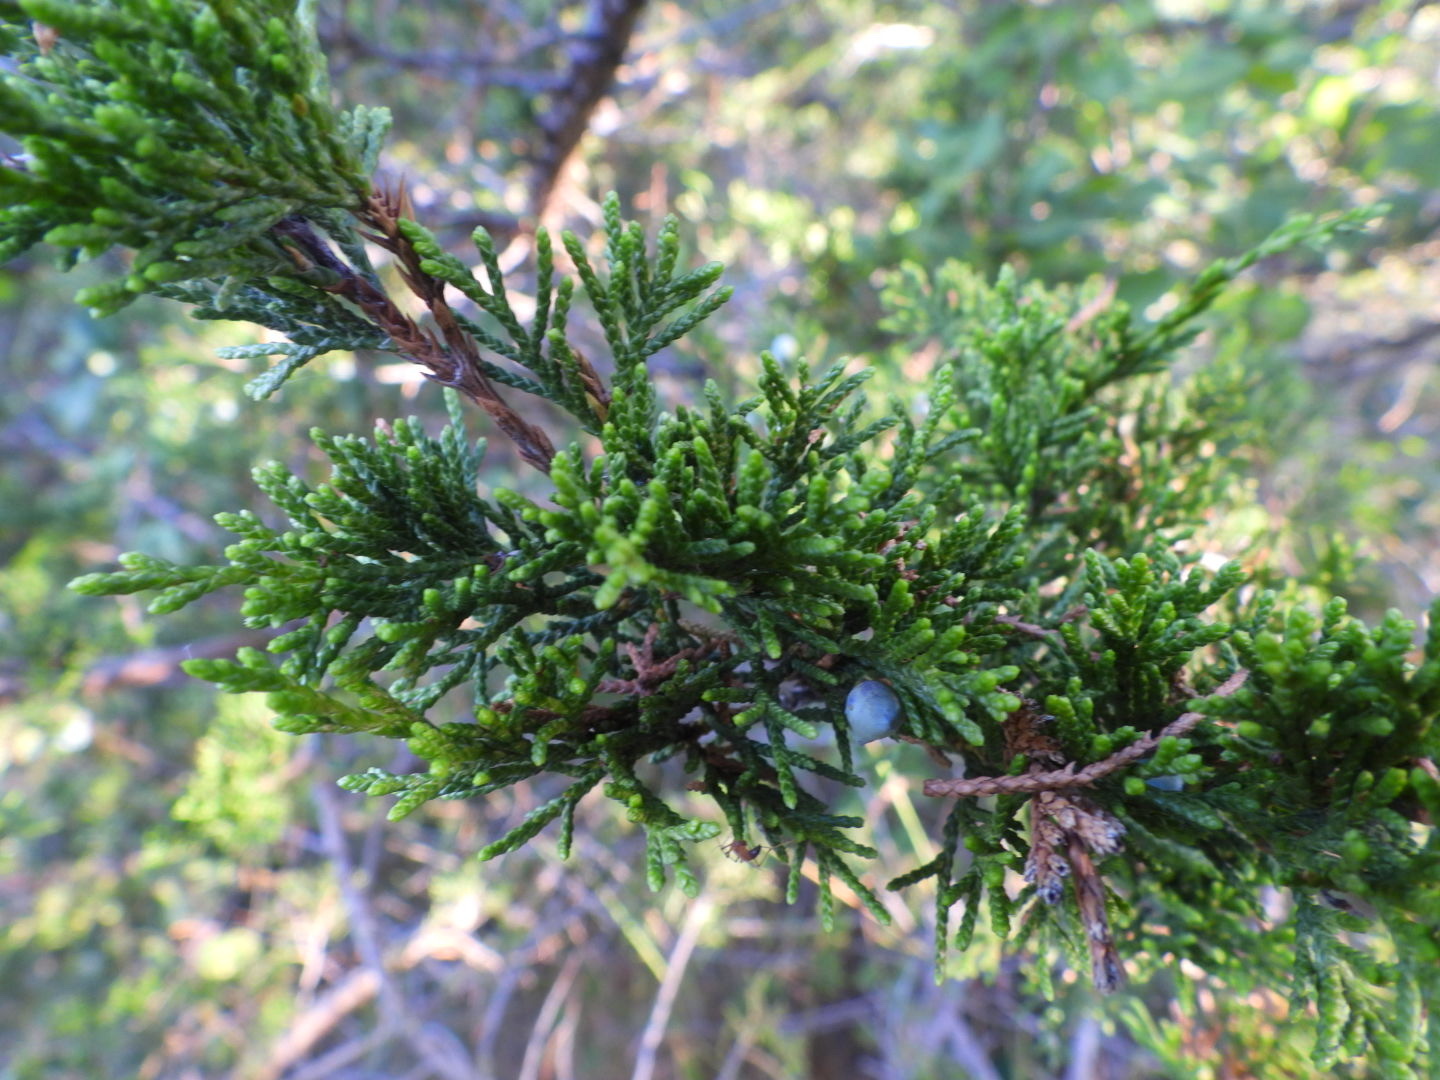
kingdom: Plantae
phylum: Tracheophyta
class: Pinopsida
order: Pinales
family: Cupressaceae
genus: Juniperus
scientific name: Juniperus virginiana
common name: Red juniper
